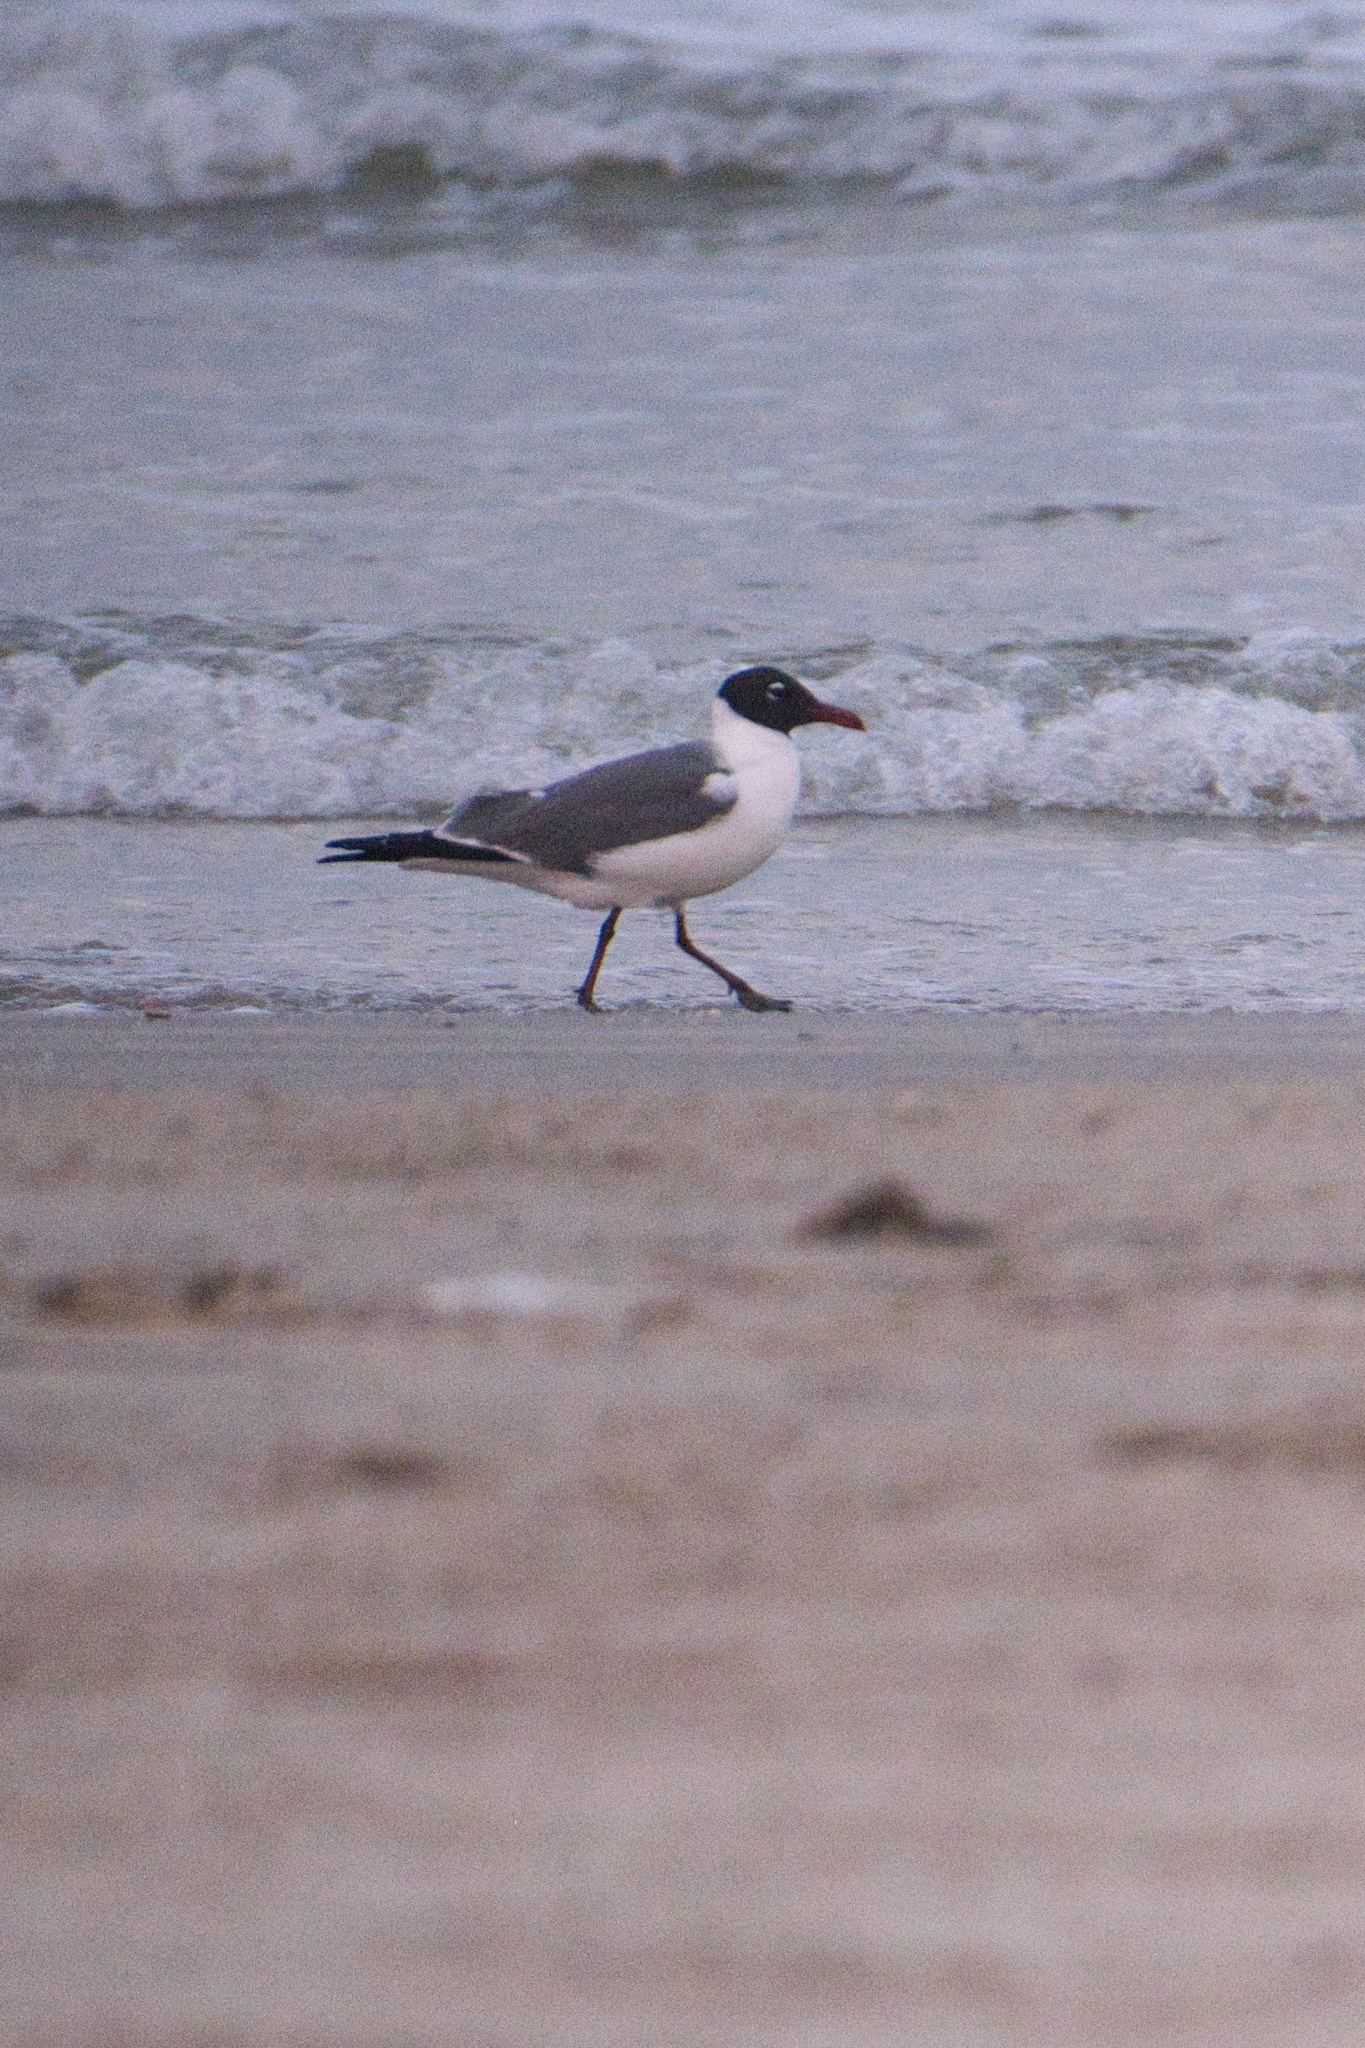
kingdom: Animalia
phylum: Chordata
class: Aves
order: Charadriiformes
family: Laridae
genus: Leucophaeus
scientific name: Leucophaeus atricilla
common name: Laughing gull
